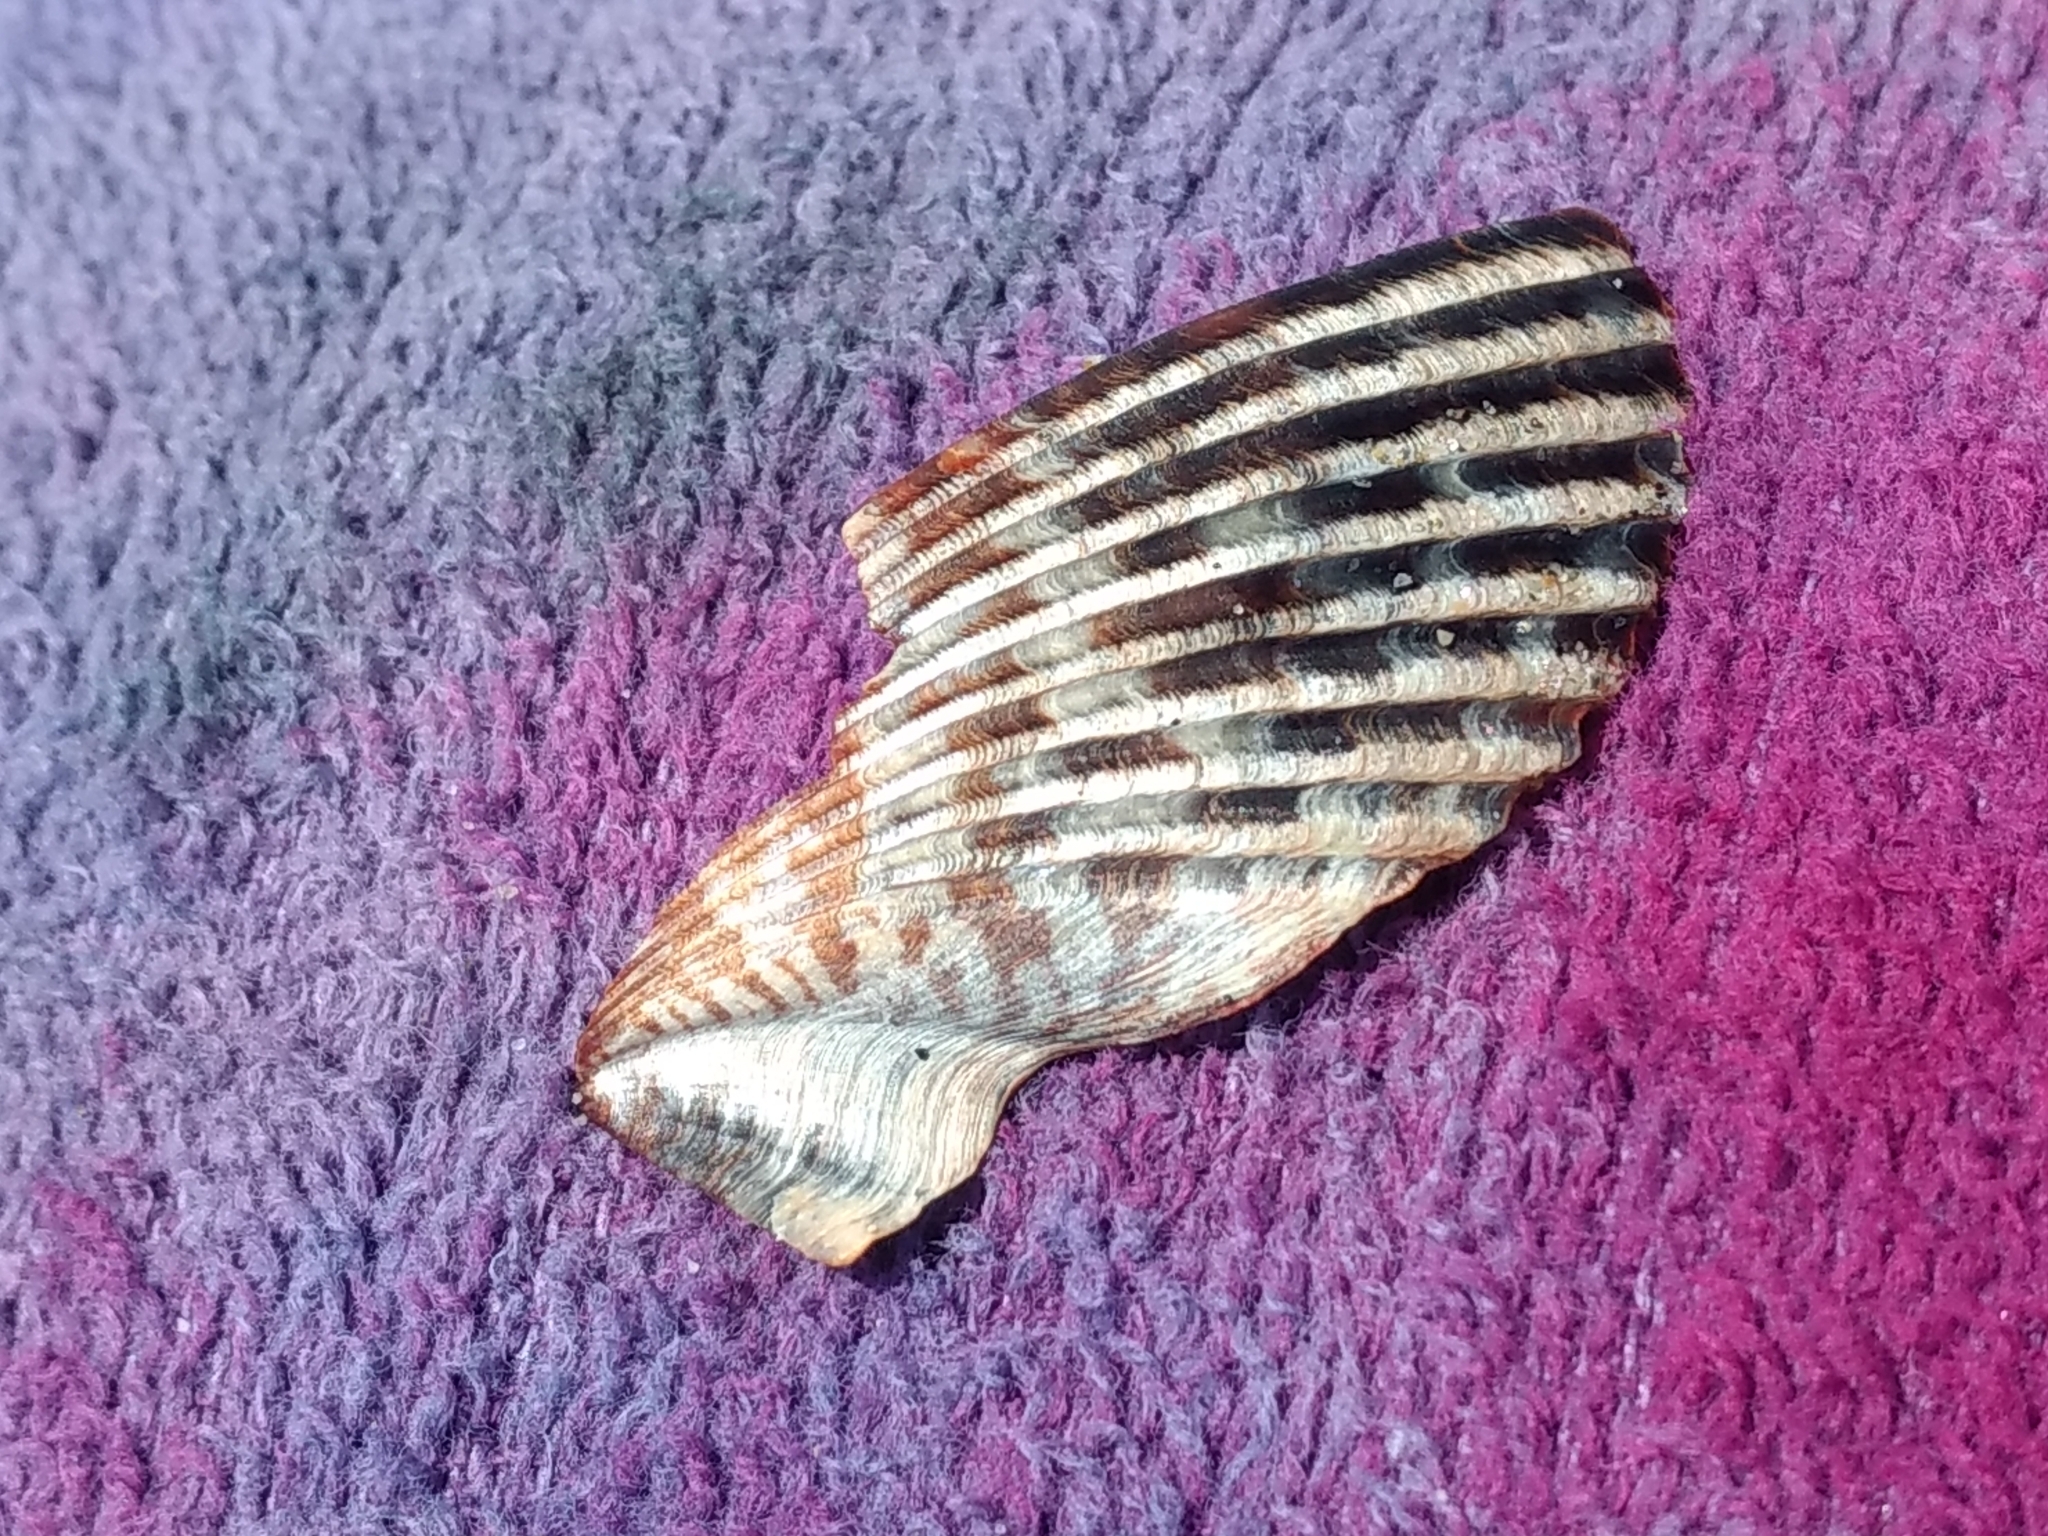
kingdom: Animalia
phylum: Mollusca
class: Bivalvia
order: Pectinida
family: Pectinidae
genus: Argopecten
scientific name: Argopecten ventricosus
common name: Catarina scallop
